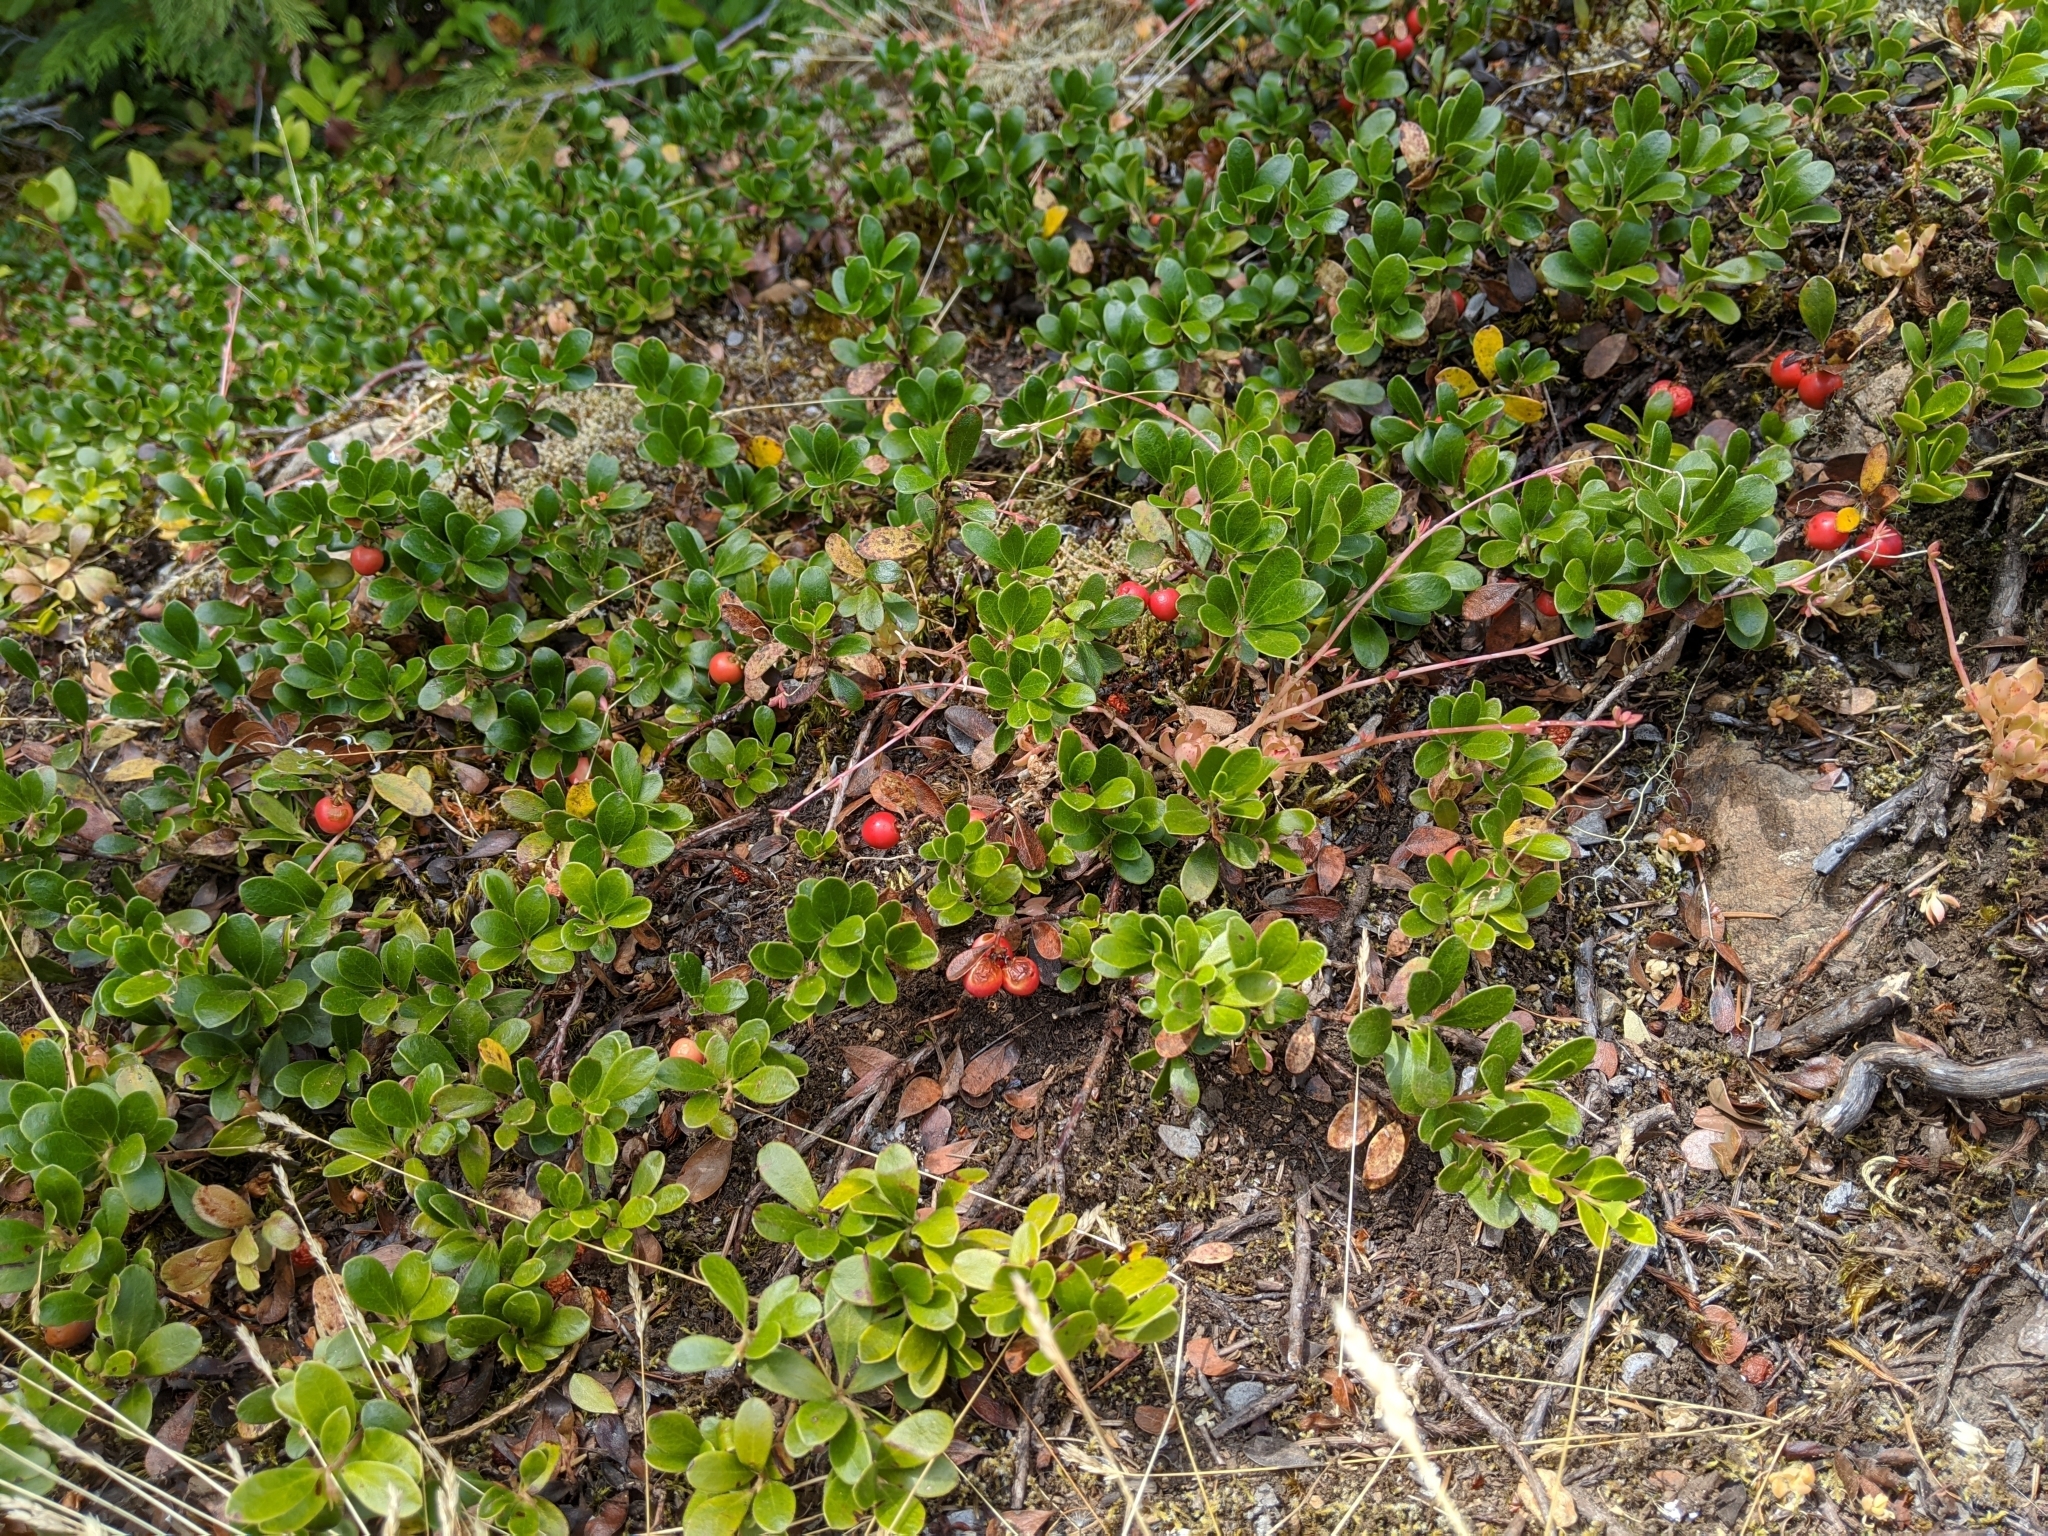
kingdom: Plantae
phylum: Tracheophyta
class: Magnoliopsida
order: Ericales
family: Ericaceae
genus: Arctostaphylos
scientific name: Arctostaphylos uva-ursi
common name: Bearberry
